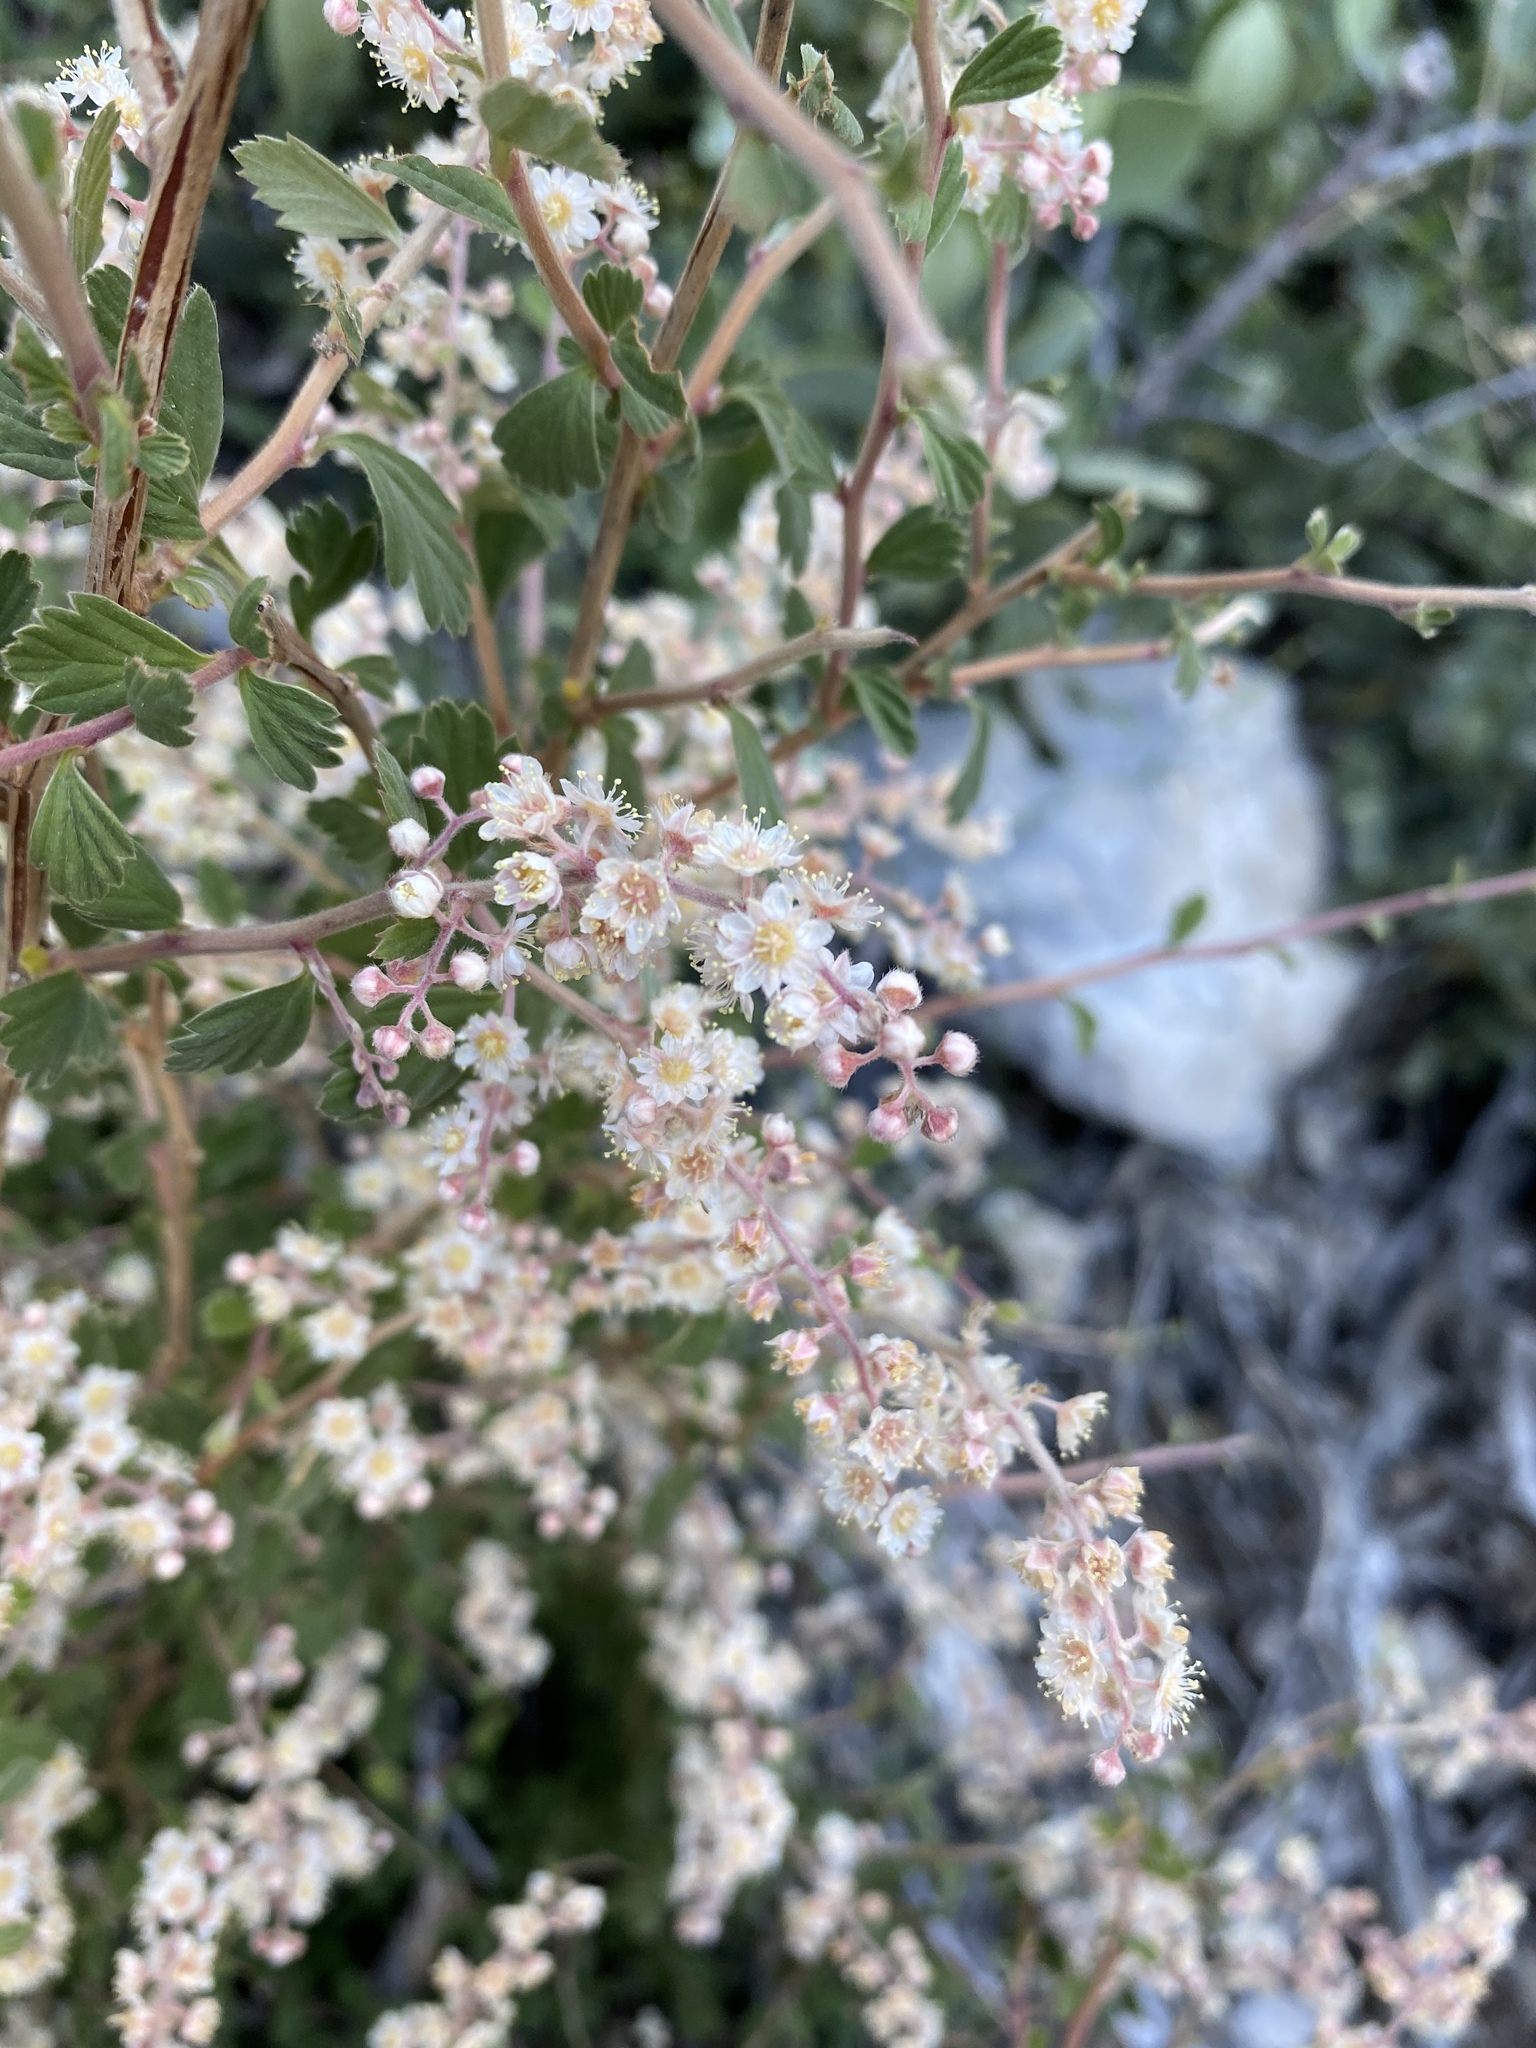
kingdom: Plantae
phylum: Tracheophyta
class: Magnoliopsida
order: Rosales
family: Rosaceae
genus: Holodiscus
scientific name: Holodiscus discolor
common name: Oceanspray
